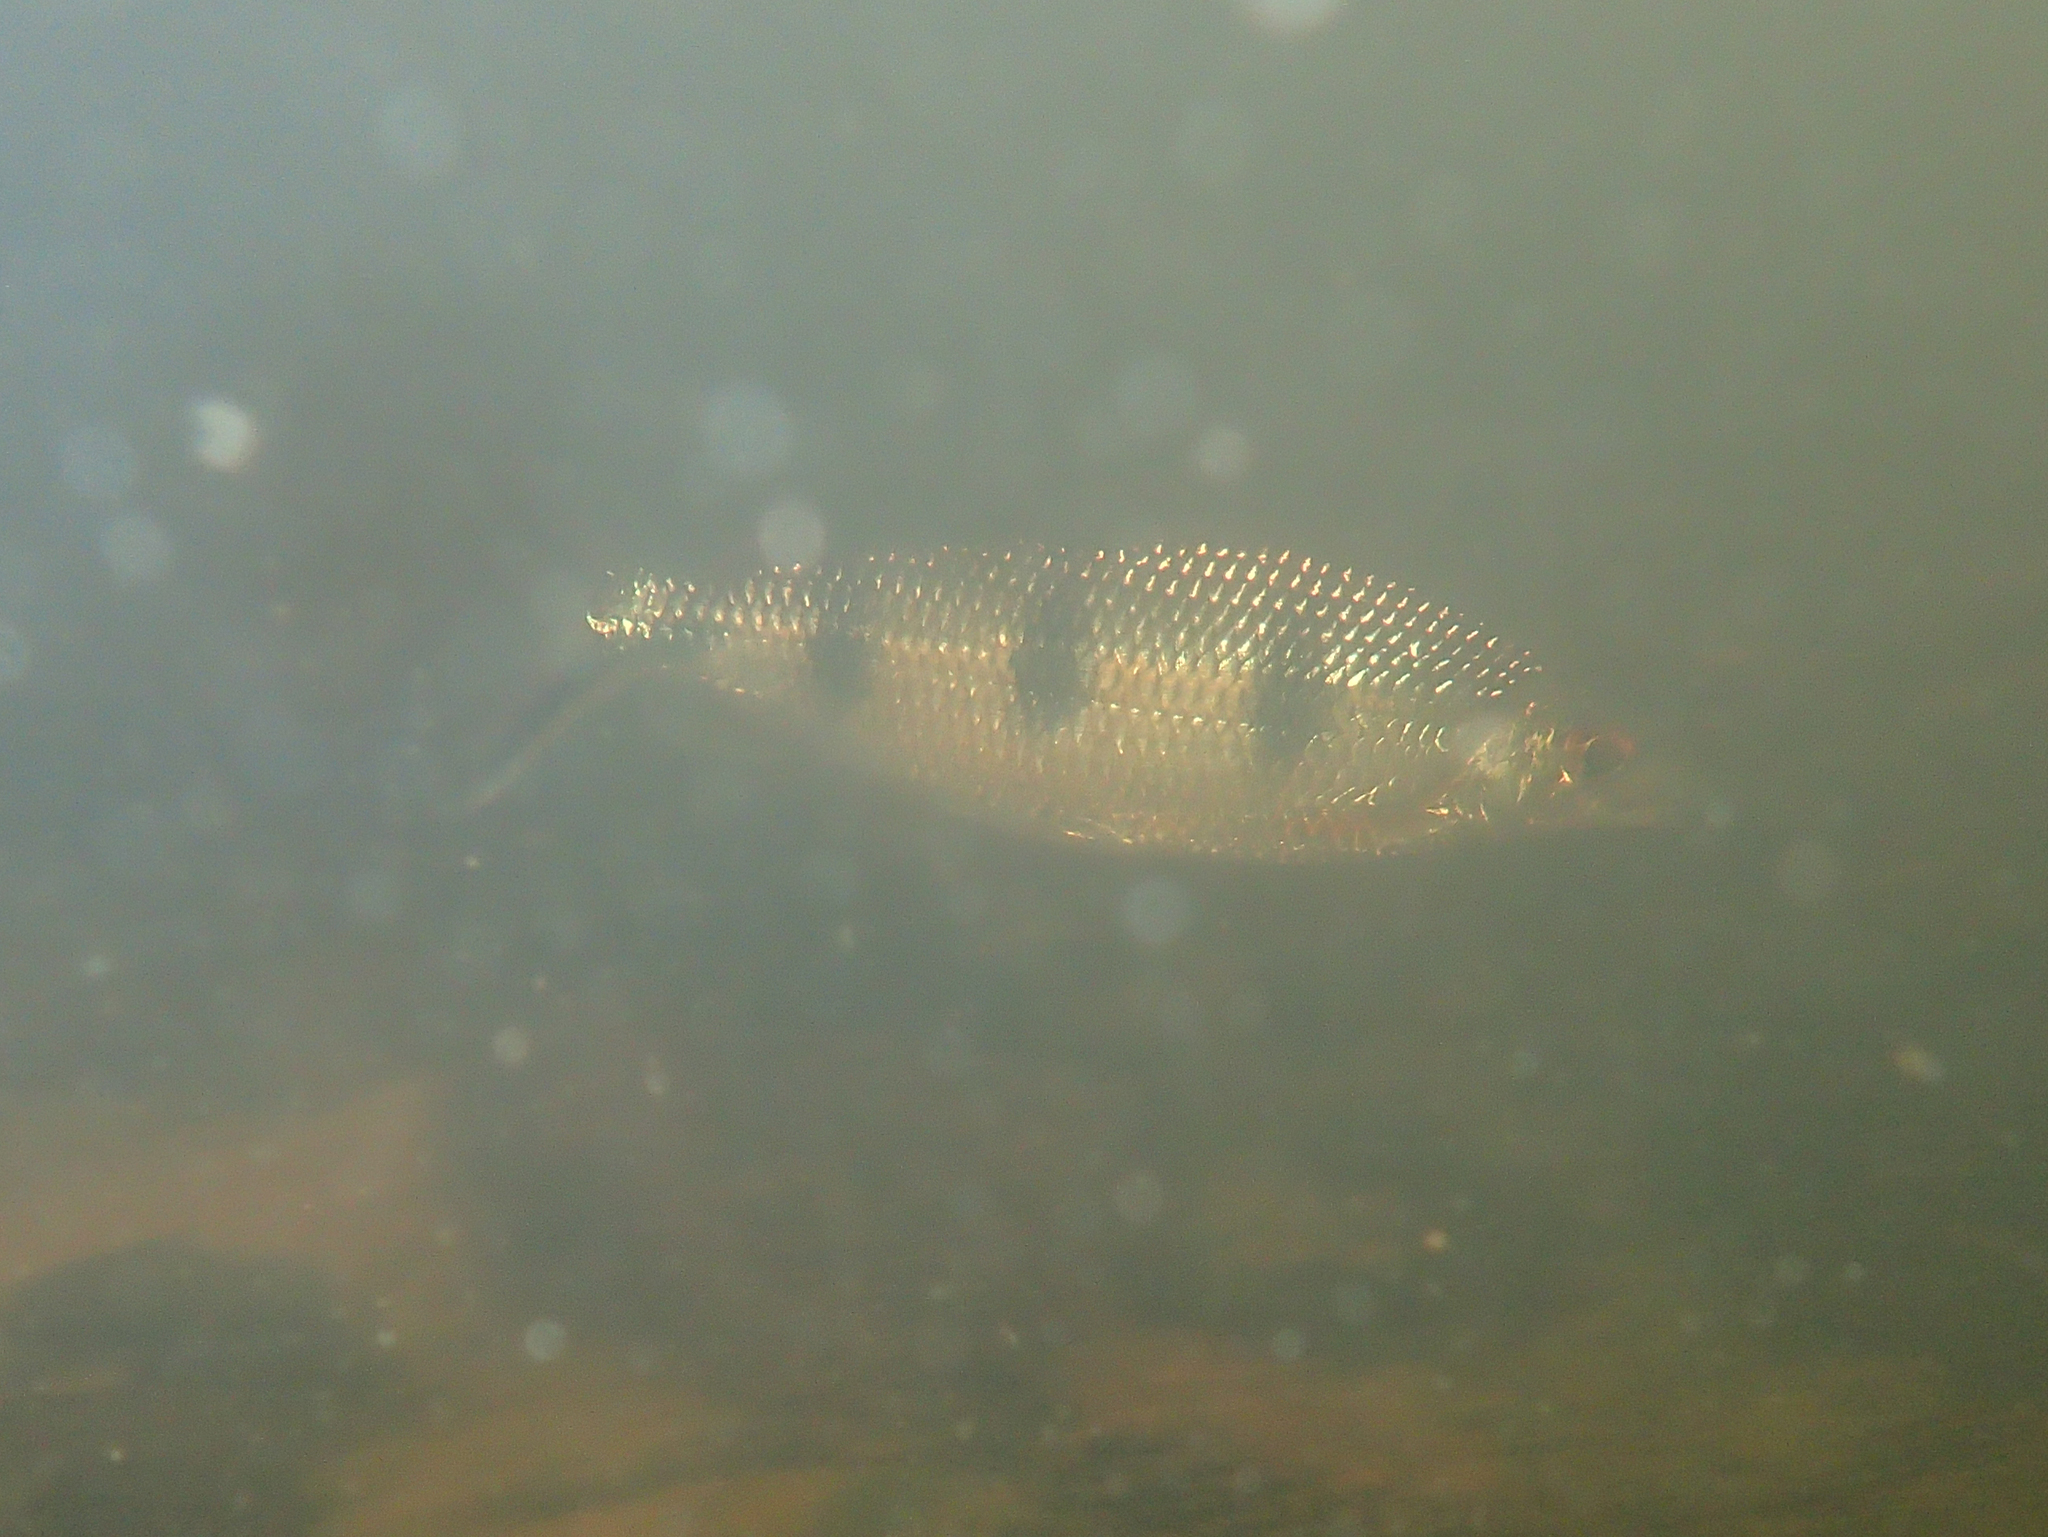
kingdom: Animalia
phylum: Chordata
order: Characiformes
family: Hemiodontidae
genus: Hemiodus
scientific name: Hemiodus quadrimaculatus
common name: Barred hemiodus
